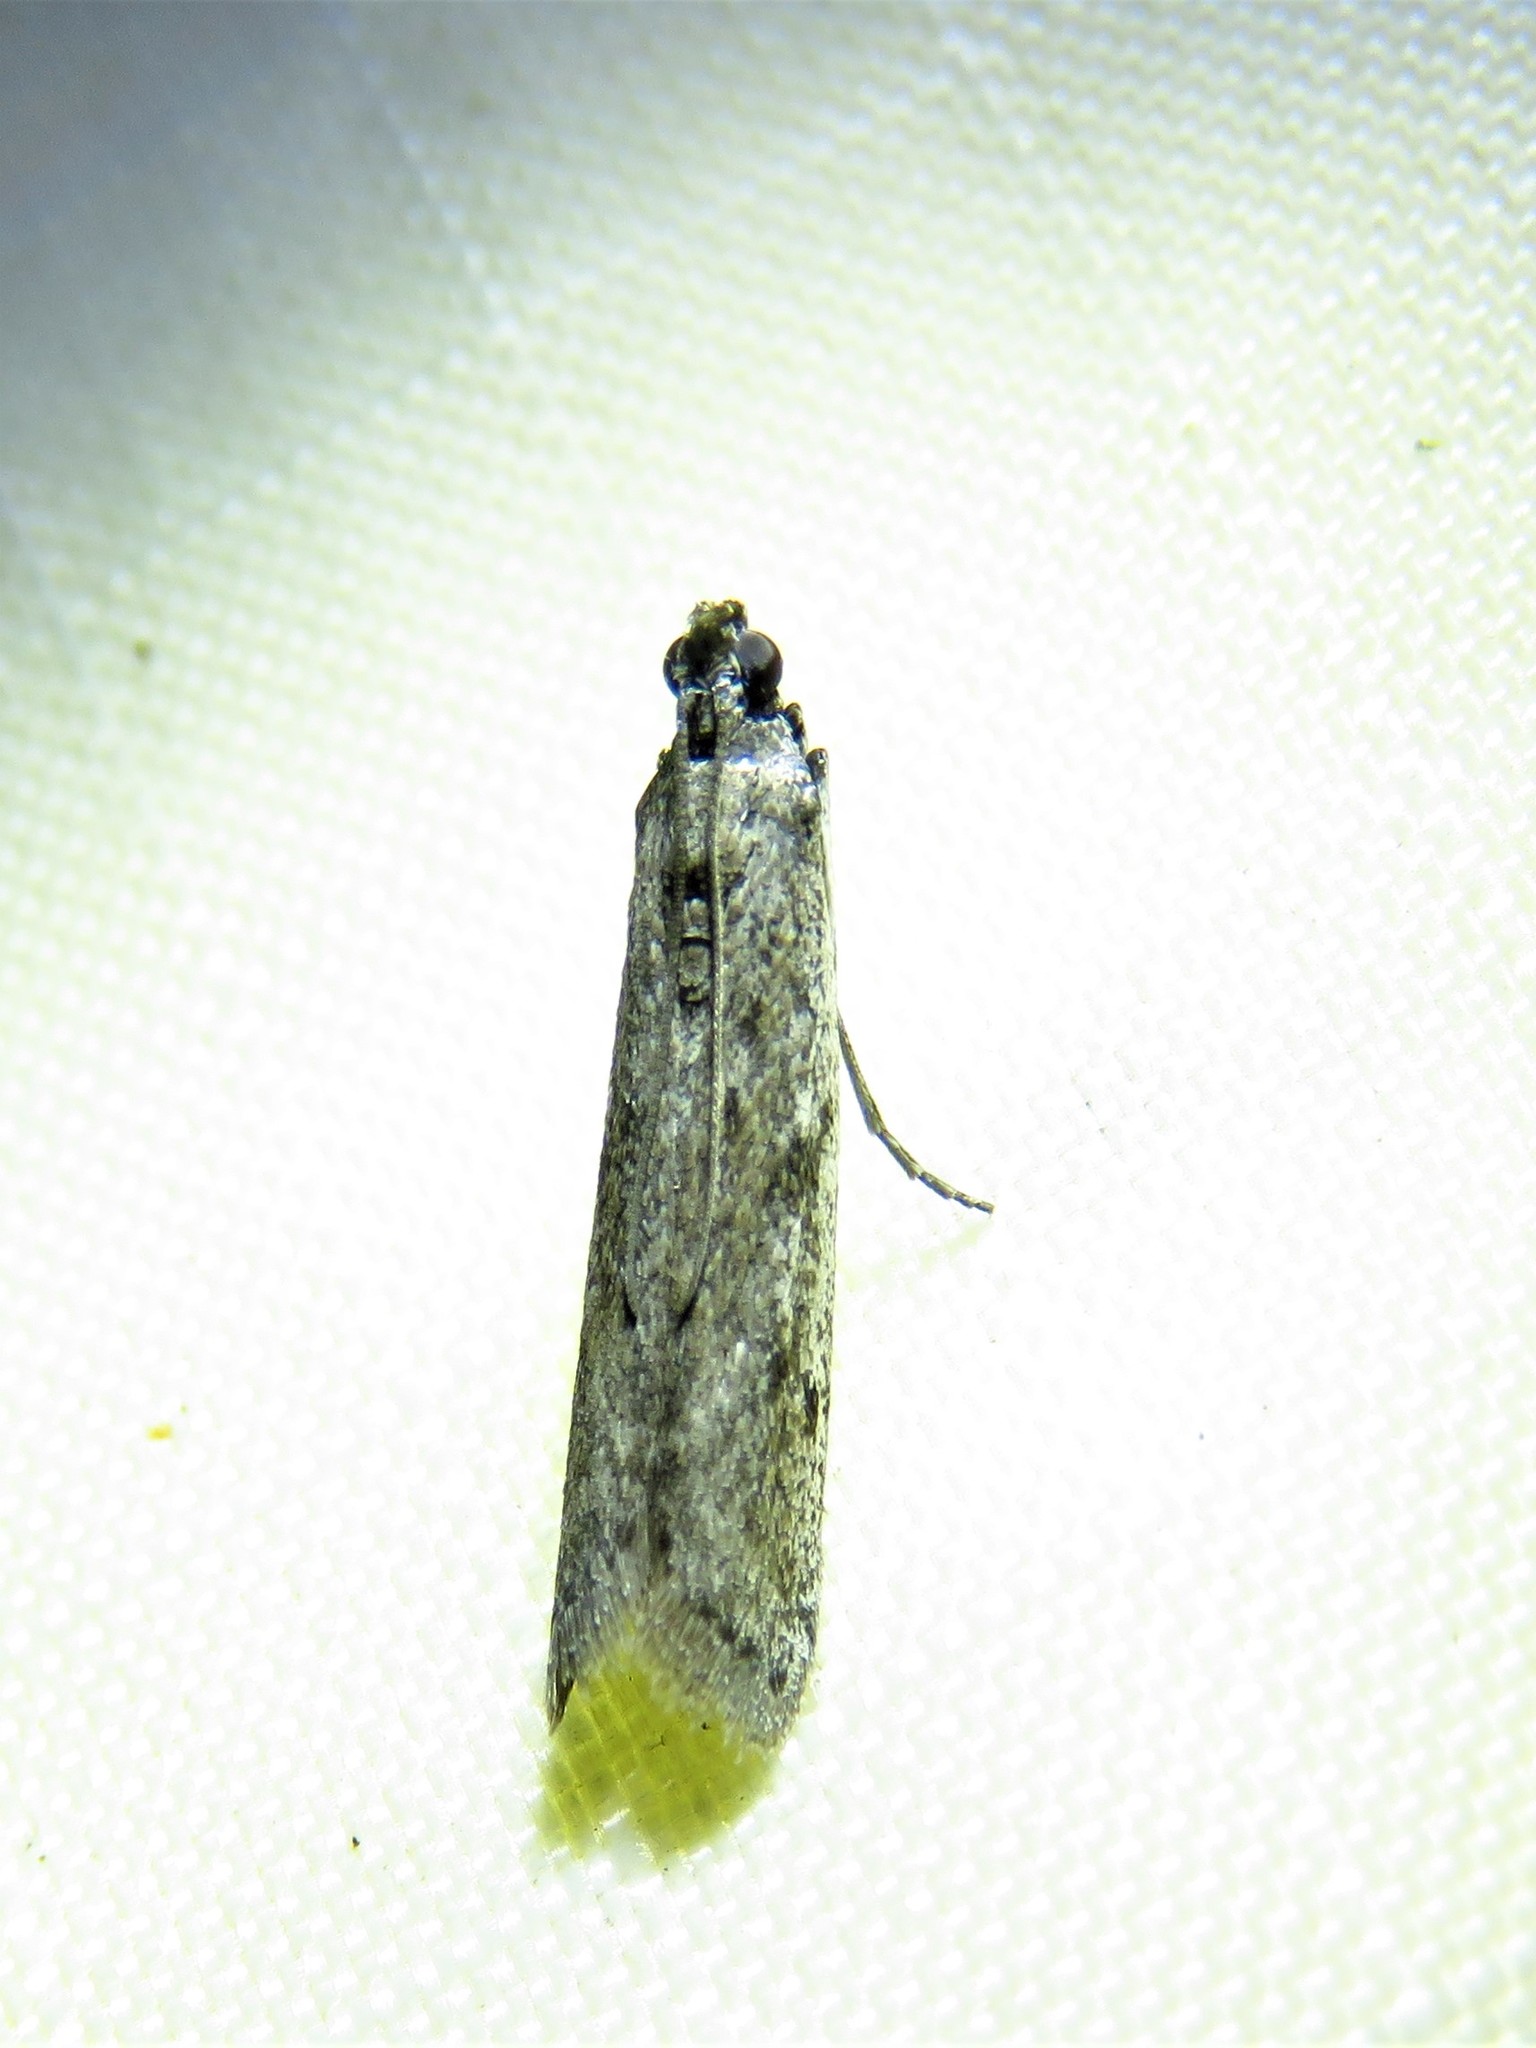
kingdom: Animalia
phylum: Arthropoda
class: Insecta
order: Lepidoptera
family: Pyralidae
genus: Phycitodes
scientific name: Phycitodes mucidellus
